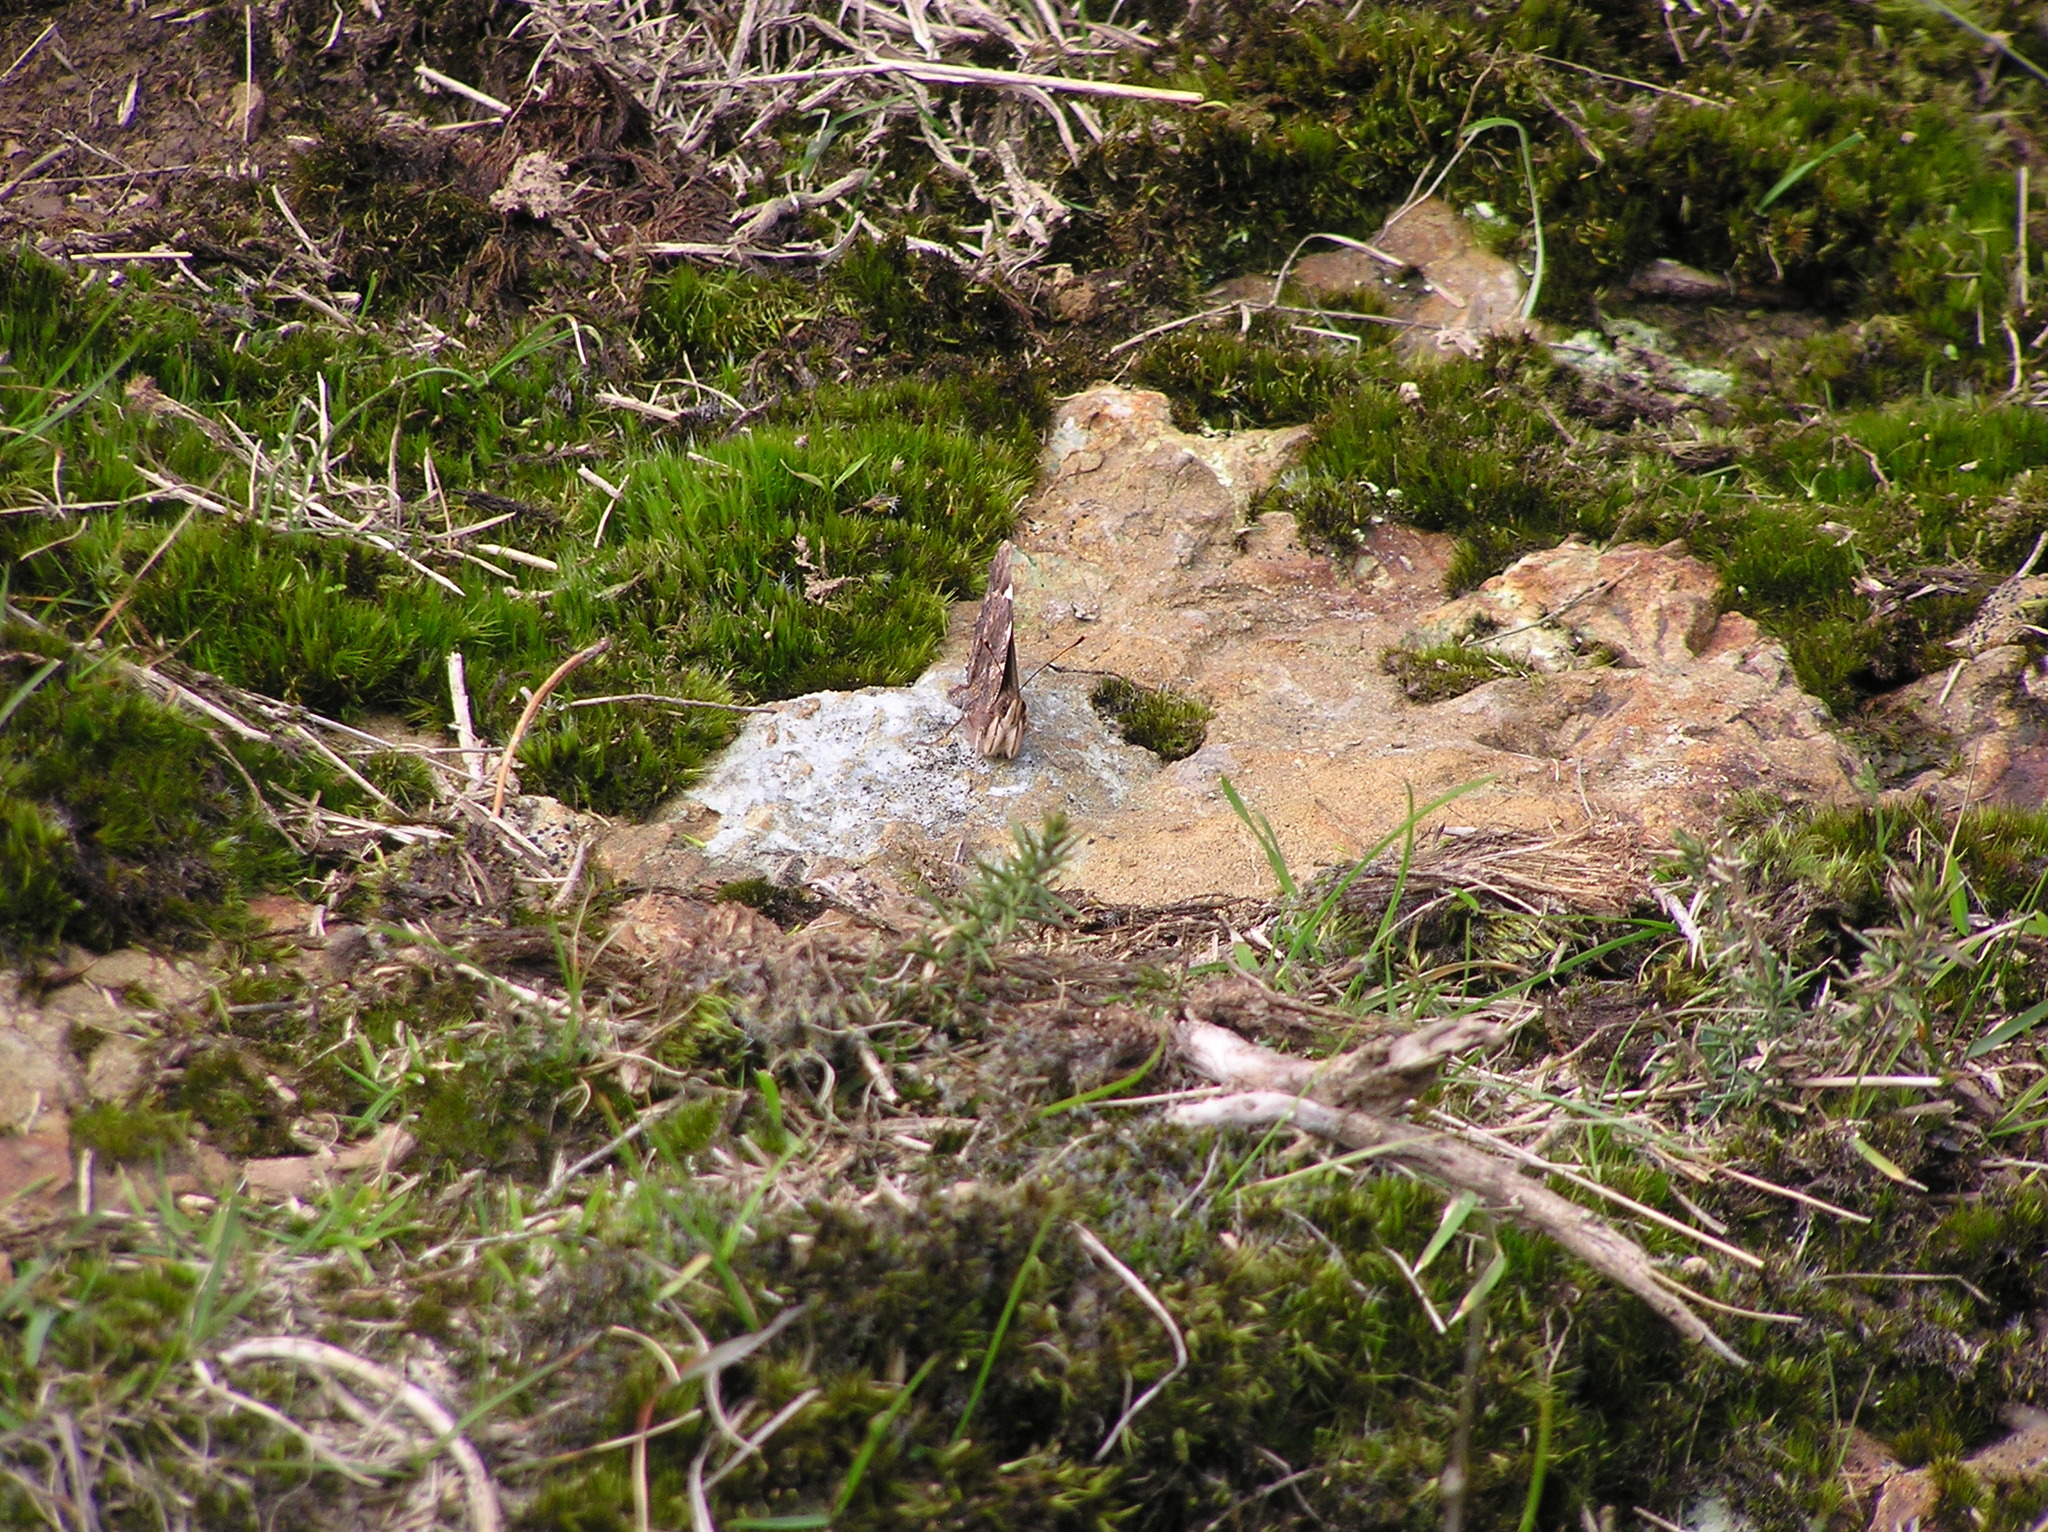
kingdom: Animalia
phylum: Arthropoda
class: Insecta
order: Lepidoptera
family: Nymphalidae
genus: Vanessa
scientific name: Vanessa itea
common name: Yellow admiral
